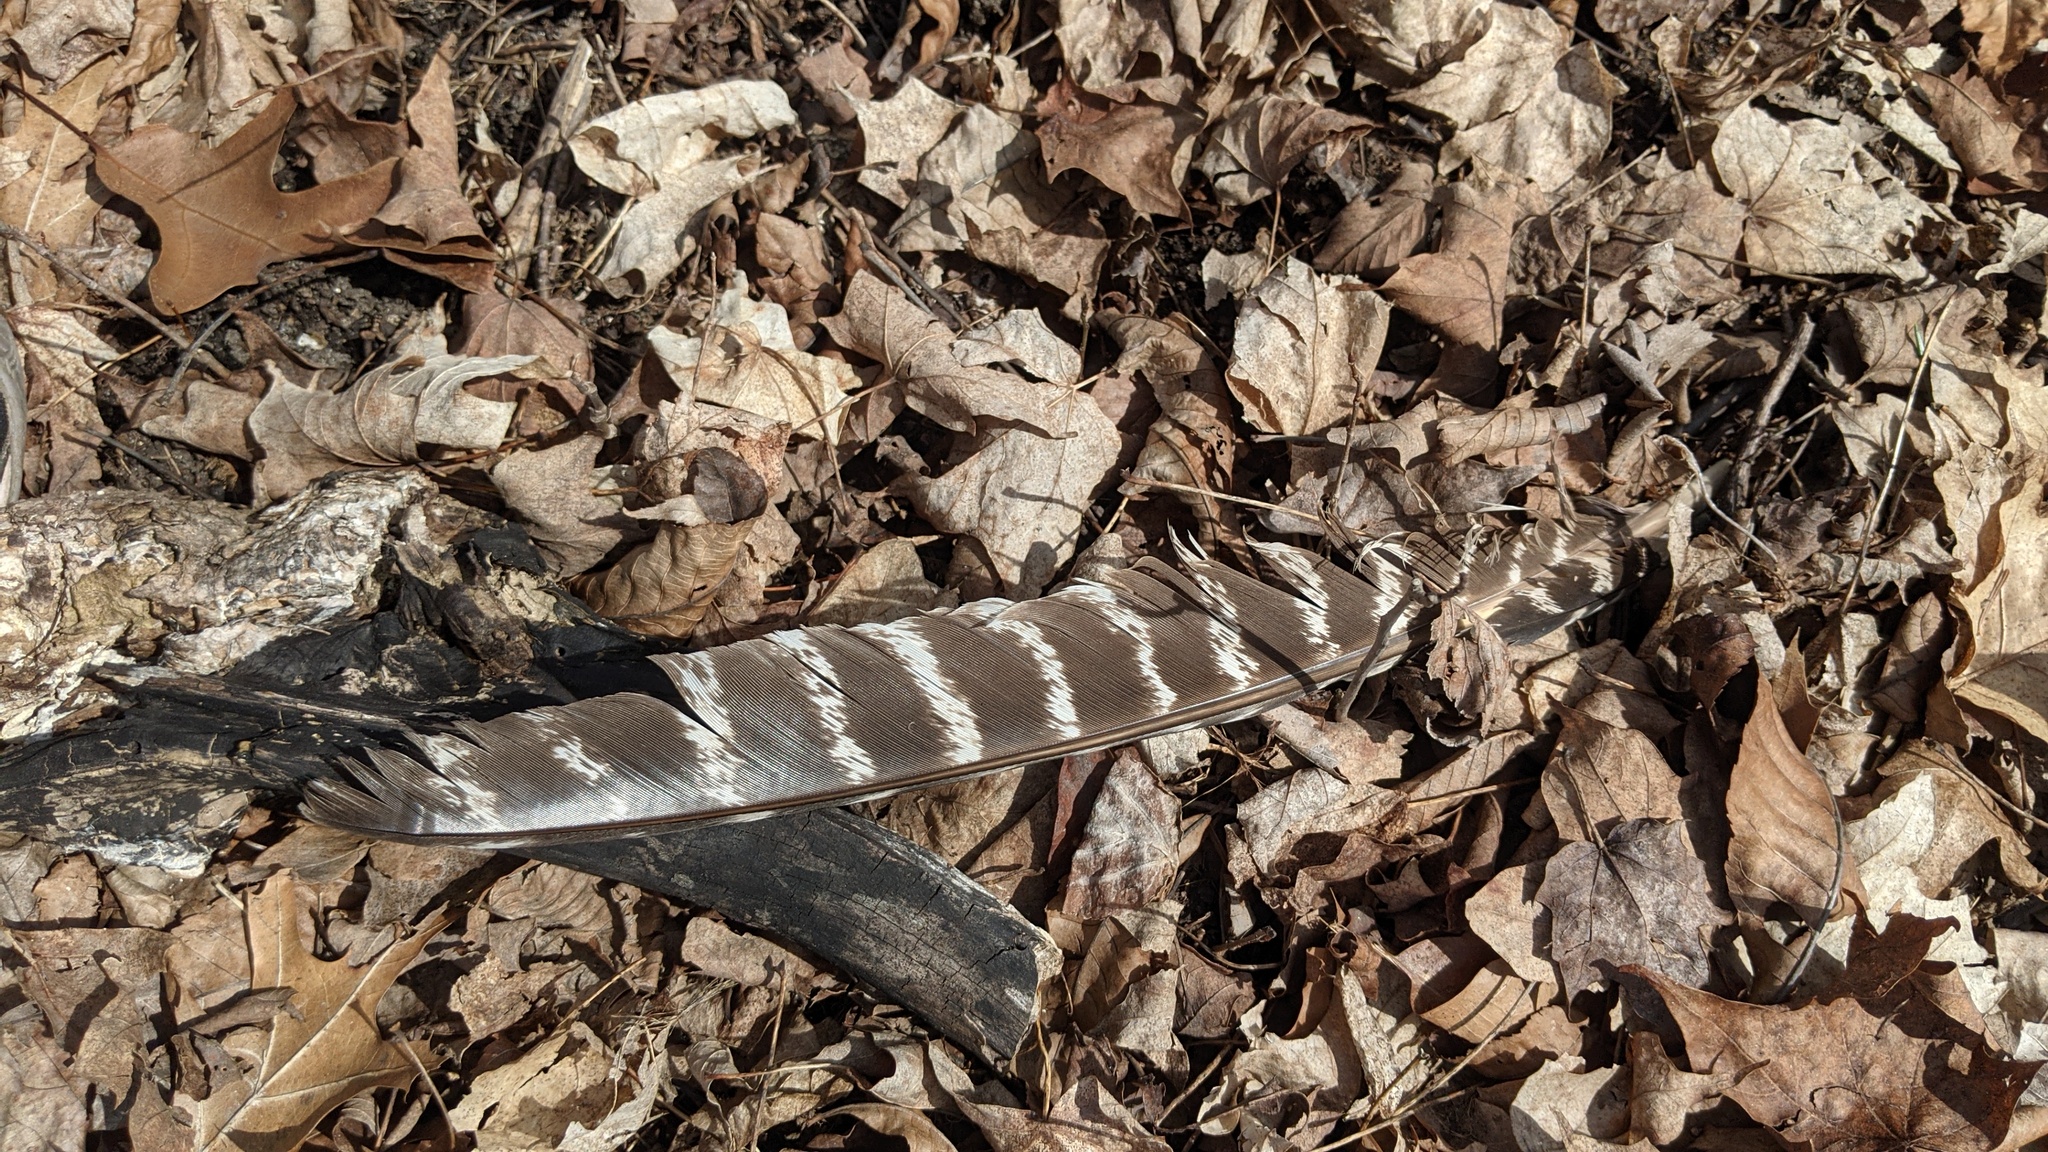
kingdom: Animalia
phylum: Chordata
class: Aves
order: Galliformes
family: Phasianidae
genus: Meleagris
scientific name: Meleagris gallopavo
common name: Wild turkey
